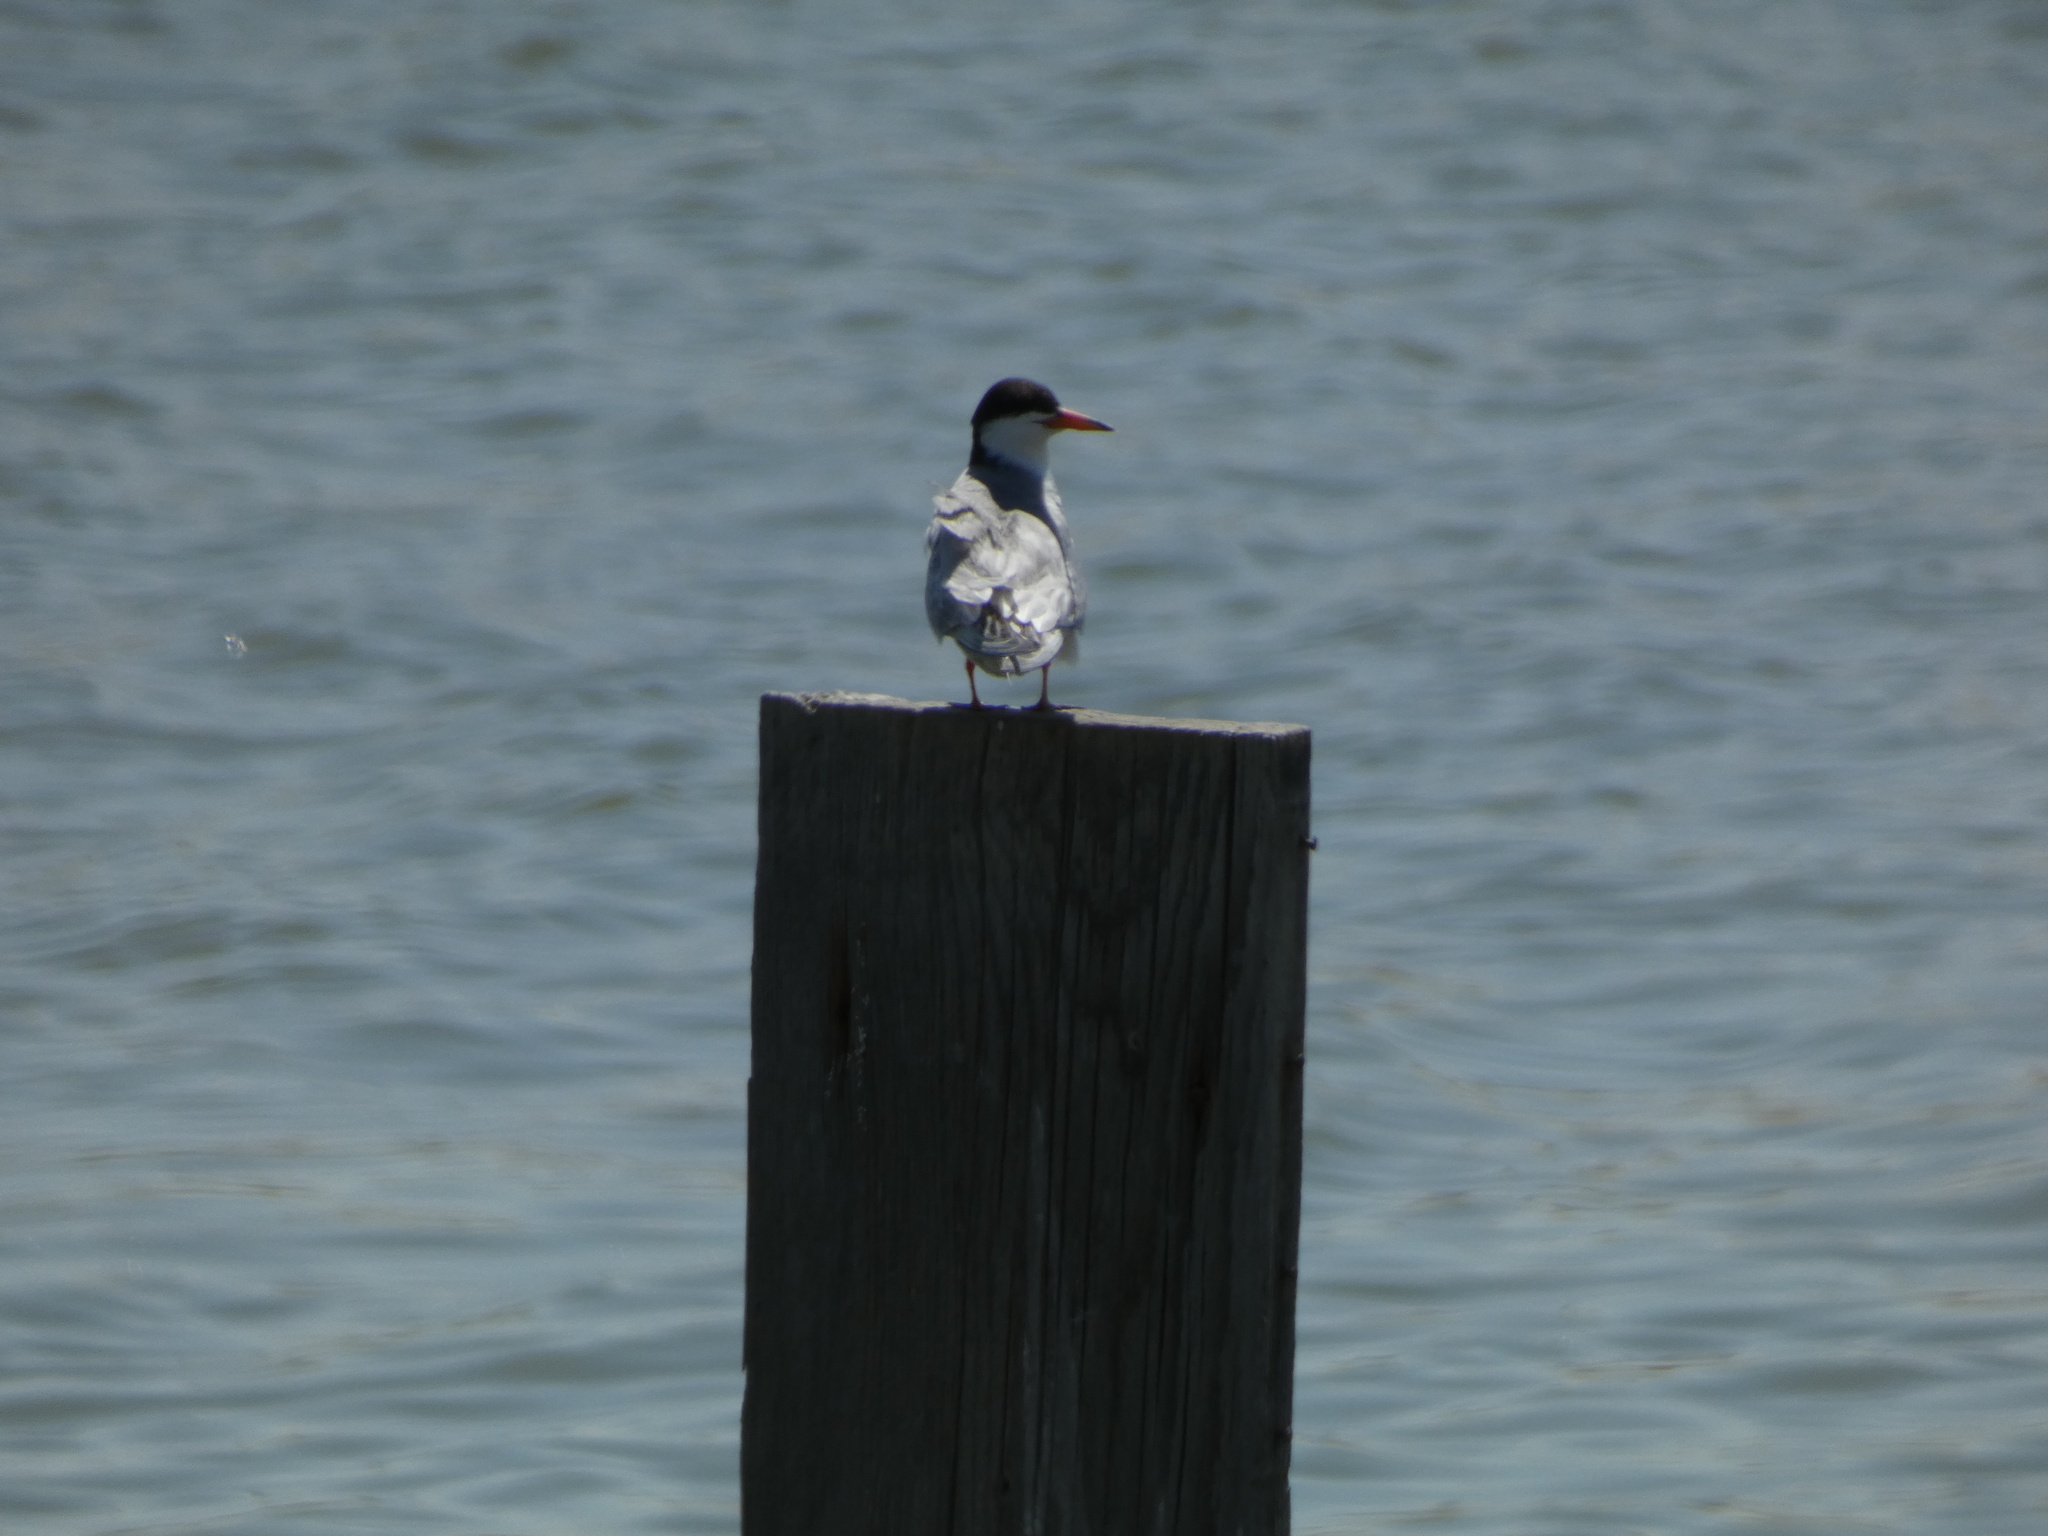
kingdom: Animalia
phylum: Chordata
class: Aves
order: Charadriiformes
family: Laridae
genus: Sterna
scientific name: Sterna forsteri
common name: Forster's tern
